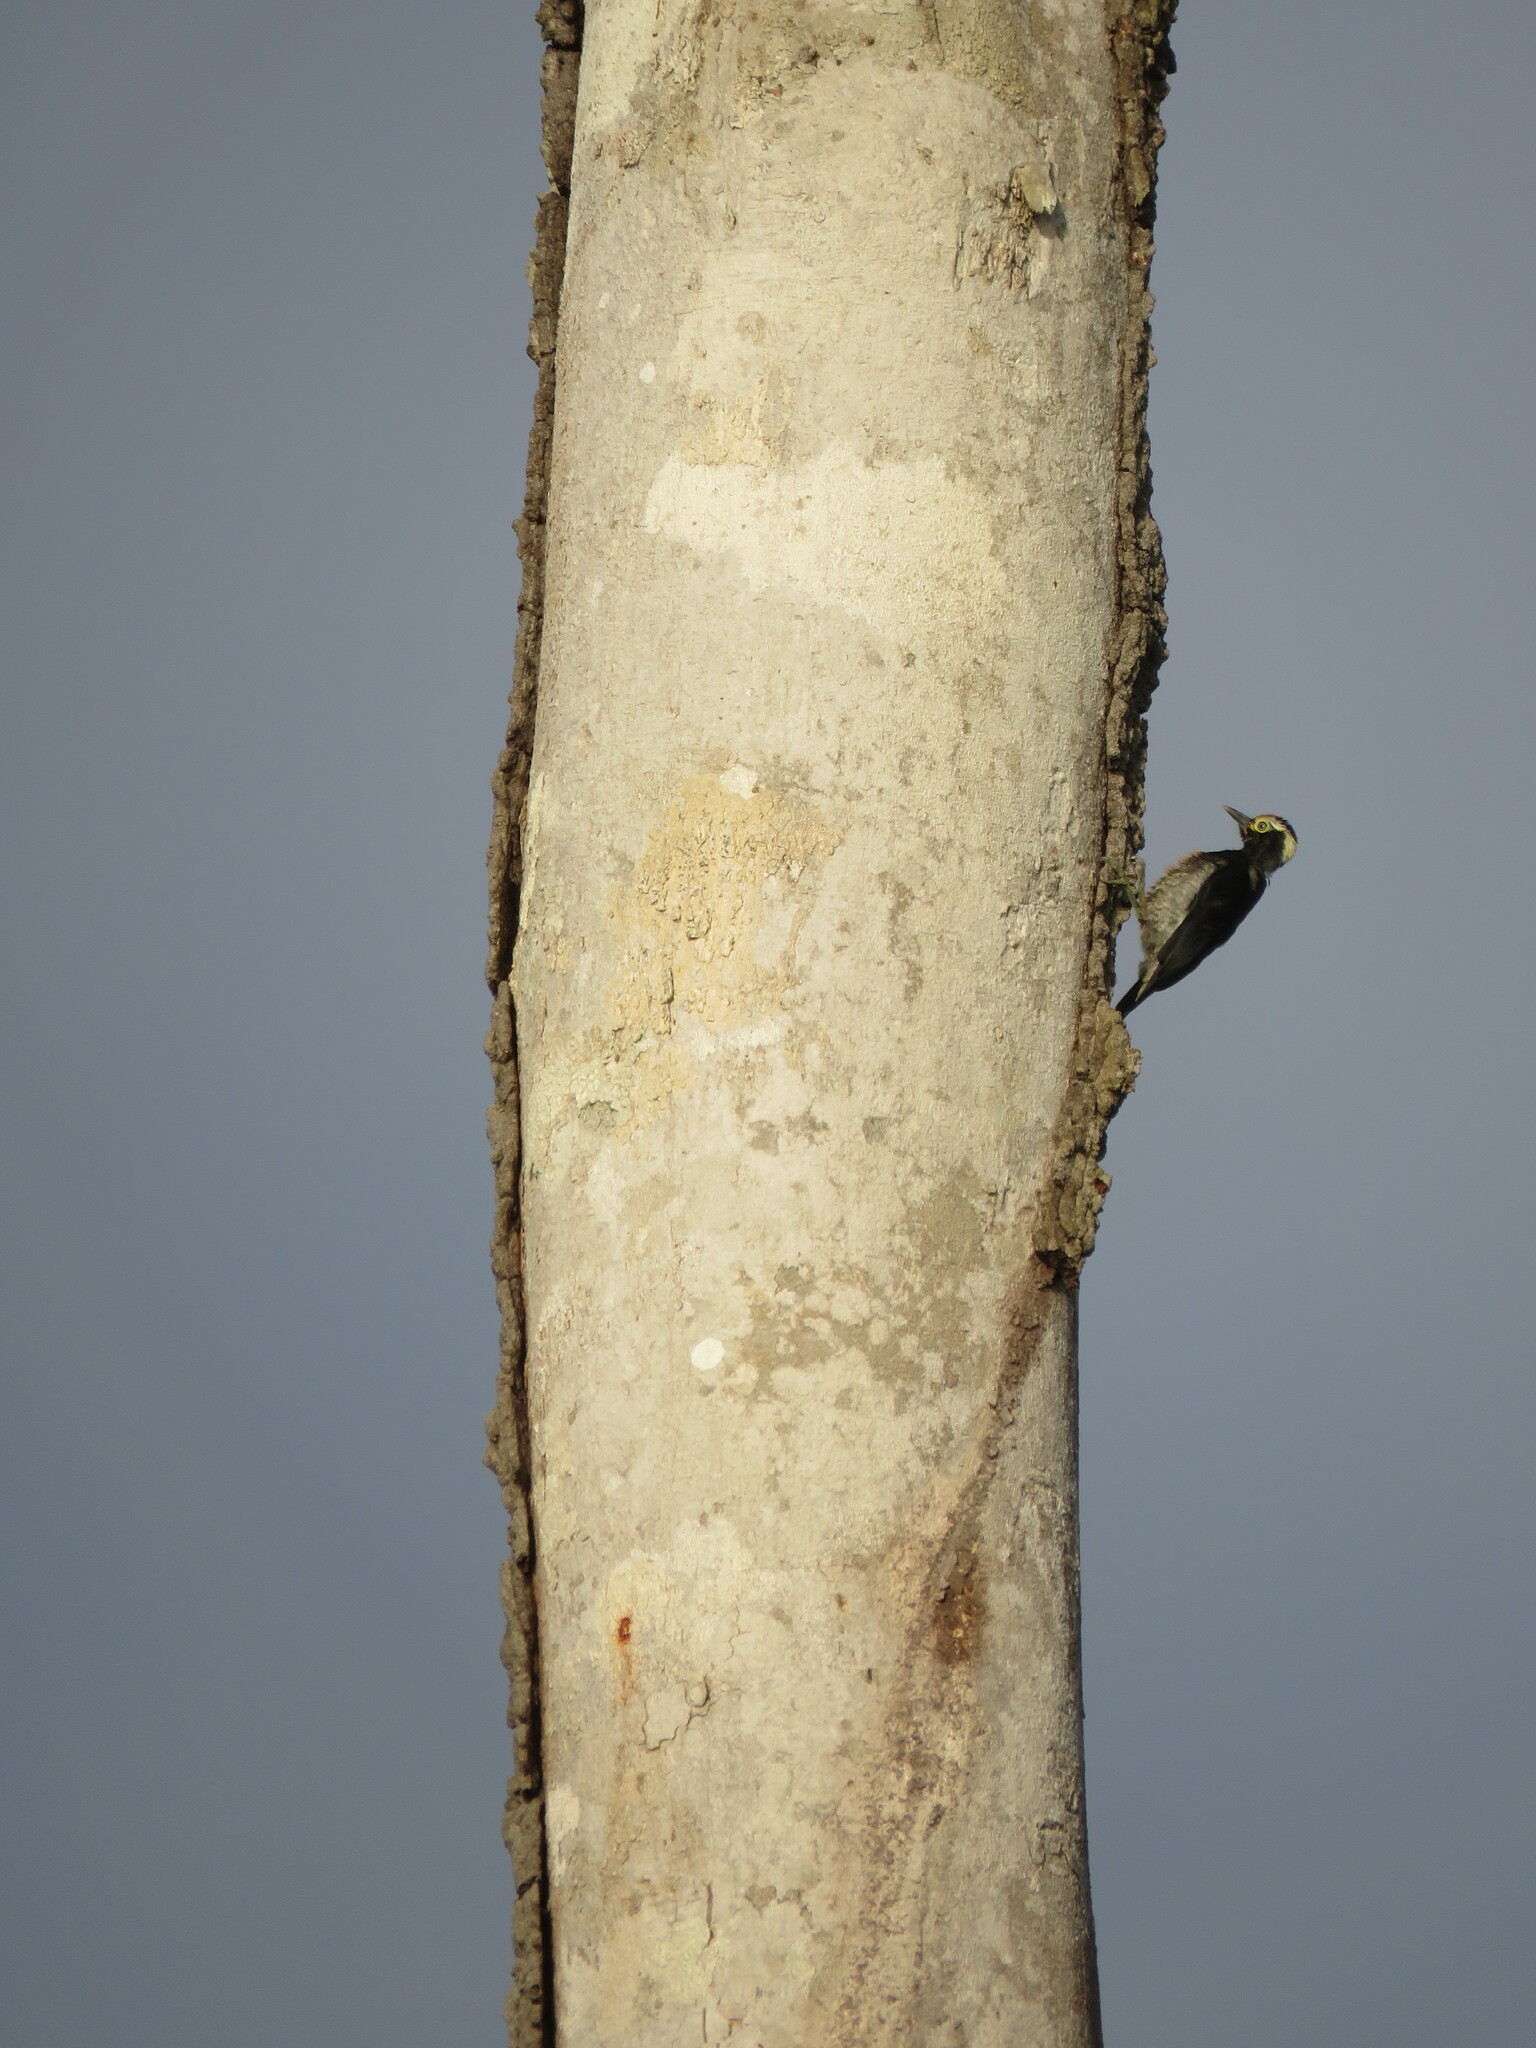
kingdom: Animalia
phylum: Chordata
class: Aves
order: Piciformes
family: Picidae
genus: Melanerpes
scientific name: Melanerpes cruentatus
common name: Yellow-tufted woodpecker
